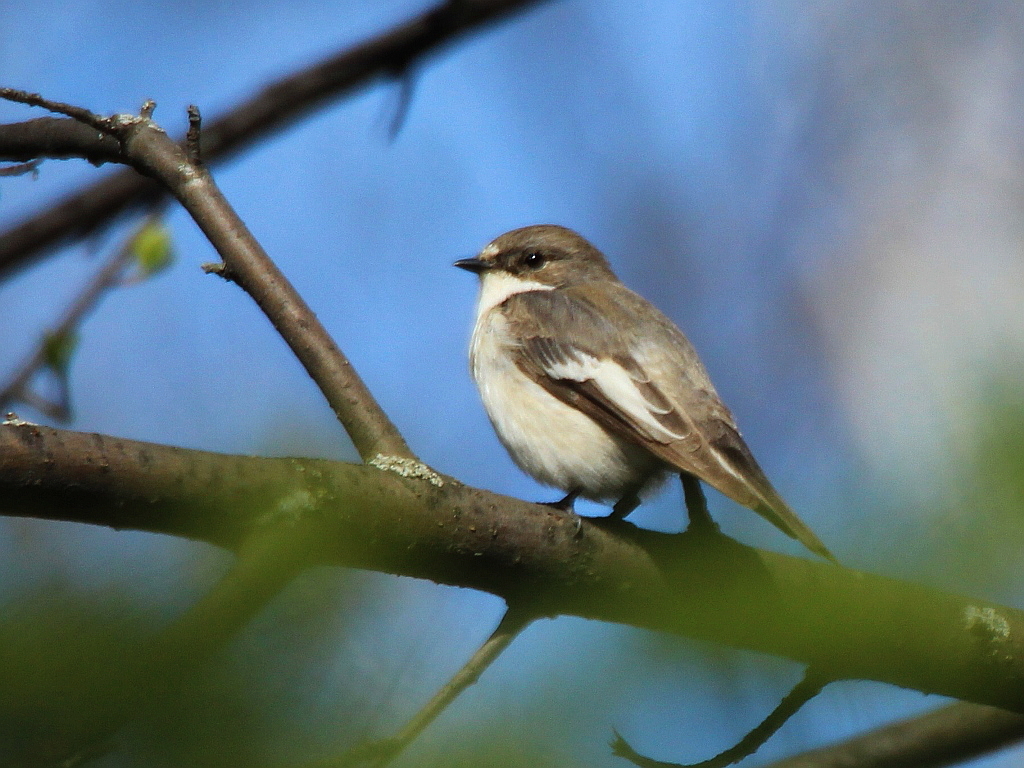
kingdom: Animalia
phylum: Chordata
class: Aves
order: Passeriformes
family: Muscicapidae
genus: Ficedula
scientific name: Ficedula hypoleuca
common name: European pied flycatcher
